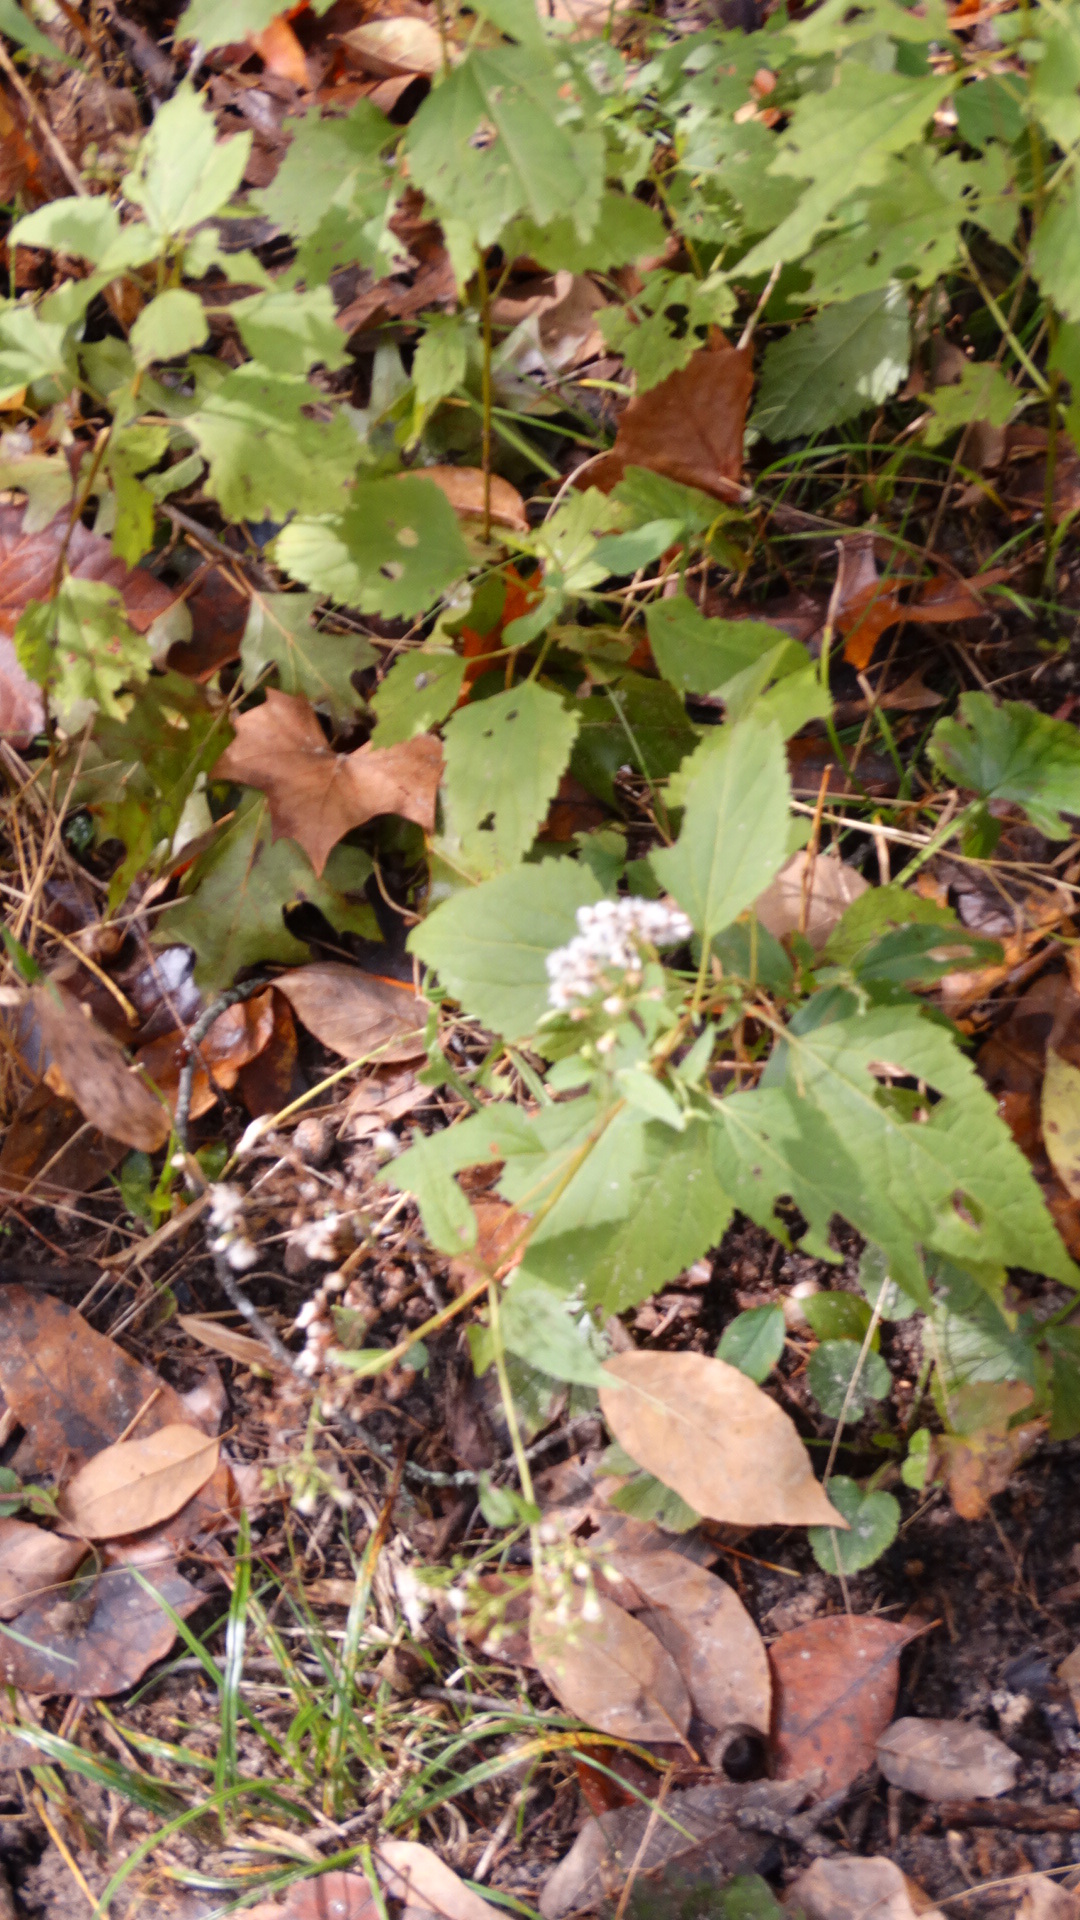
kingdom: Plantae
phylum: Tracheophyta
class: Magnoliopsida
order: Asterales
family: Asteraceae
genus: Ageratina
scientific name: Ageratina altissima
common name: White snakeroot
